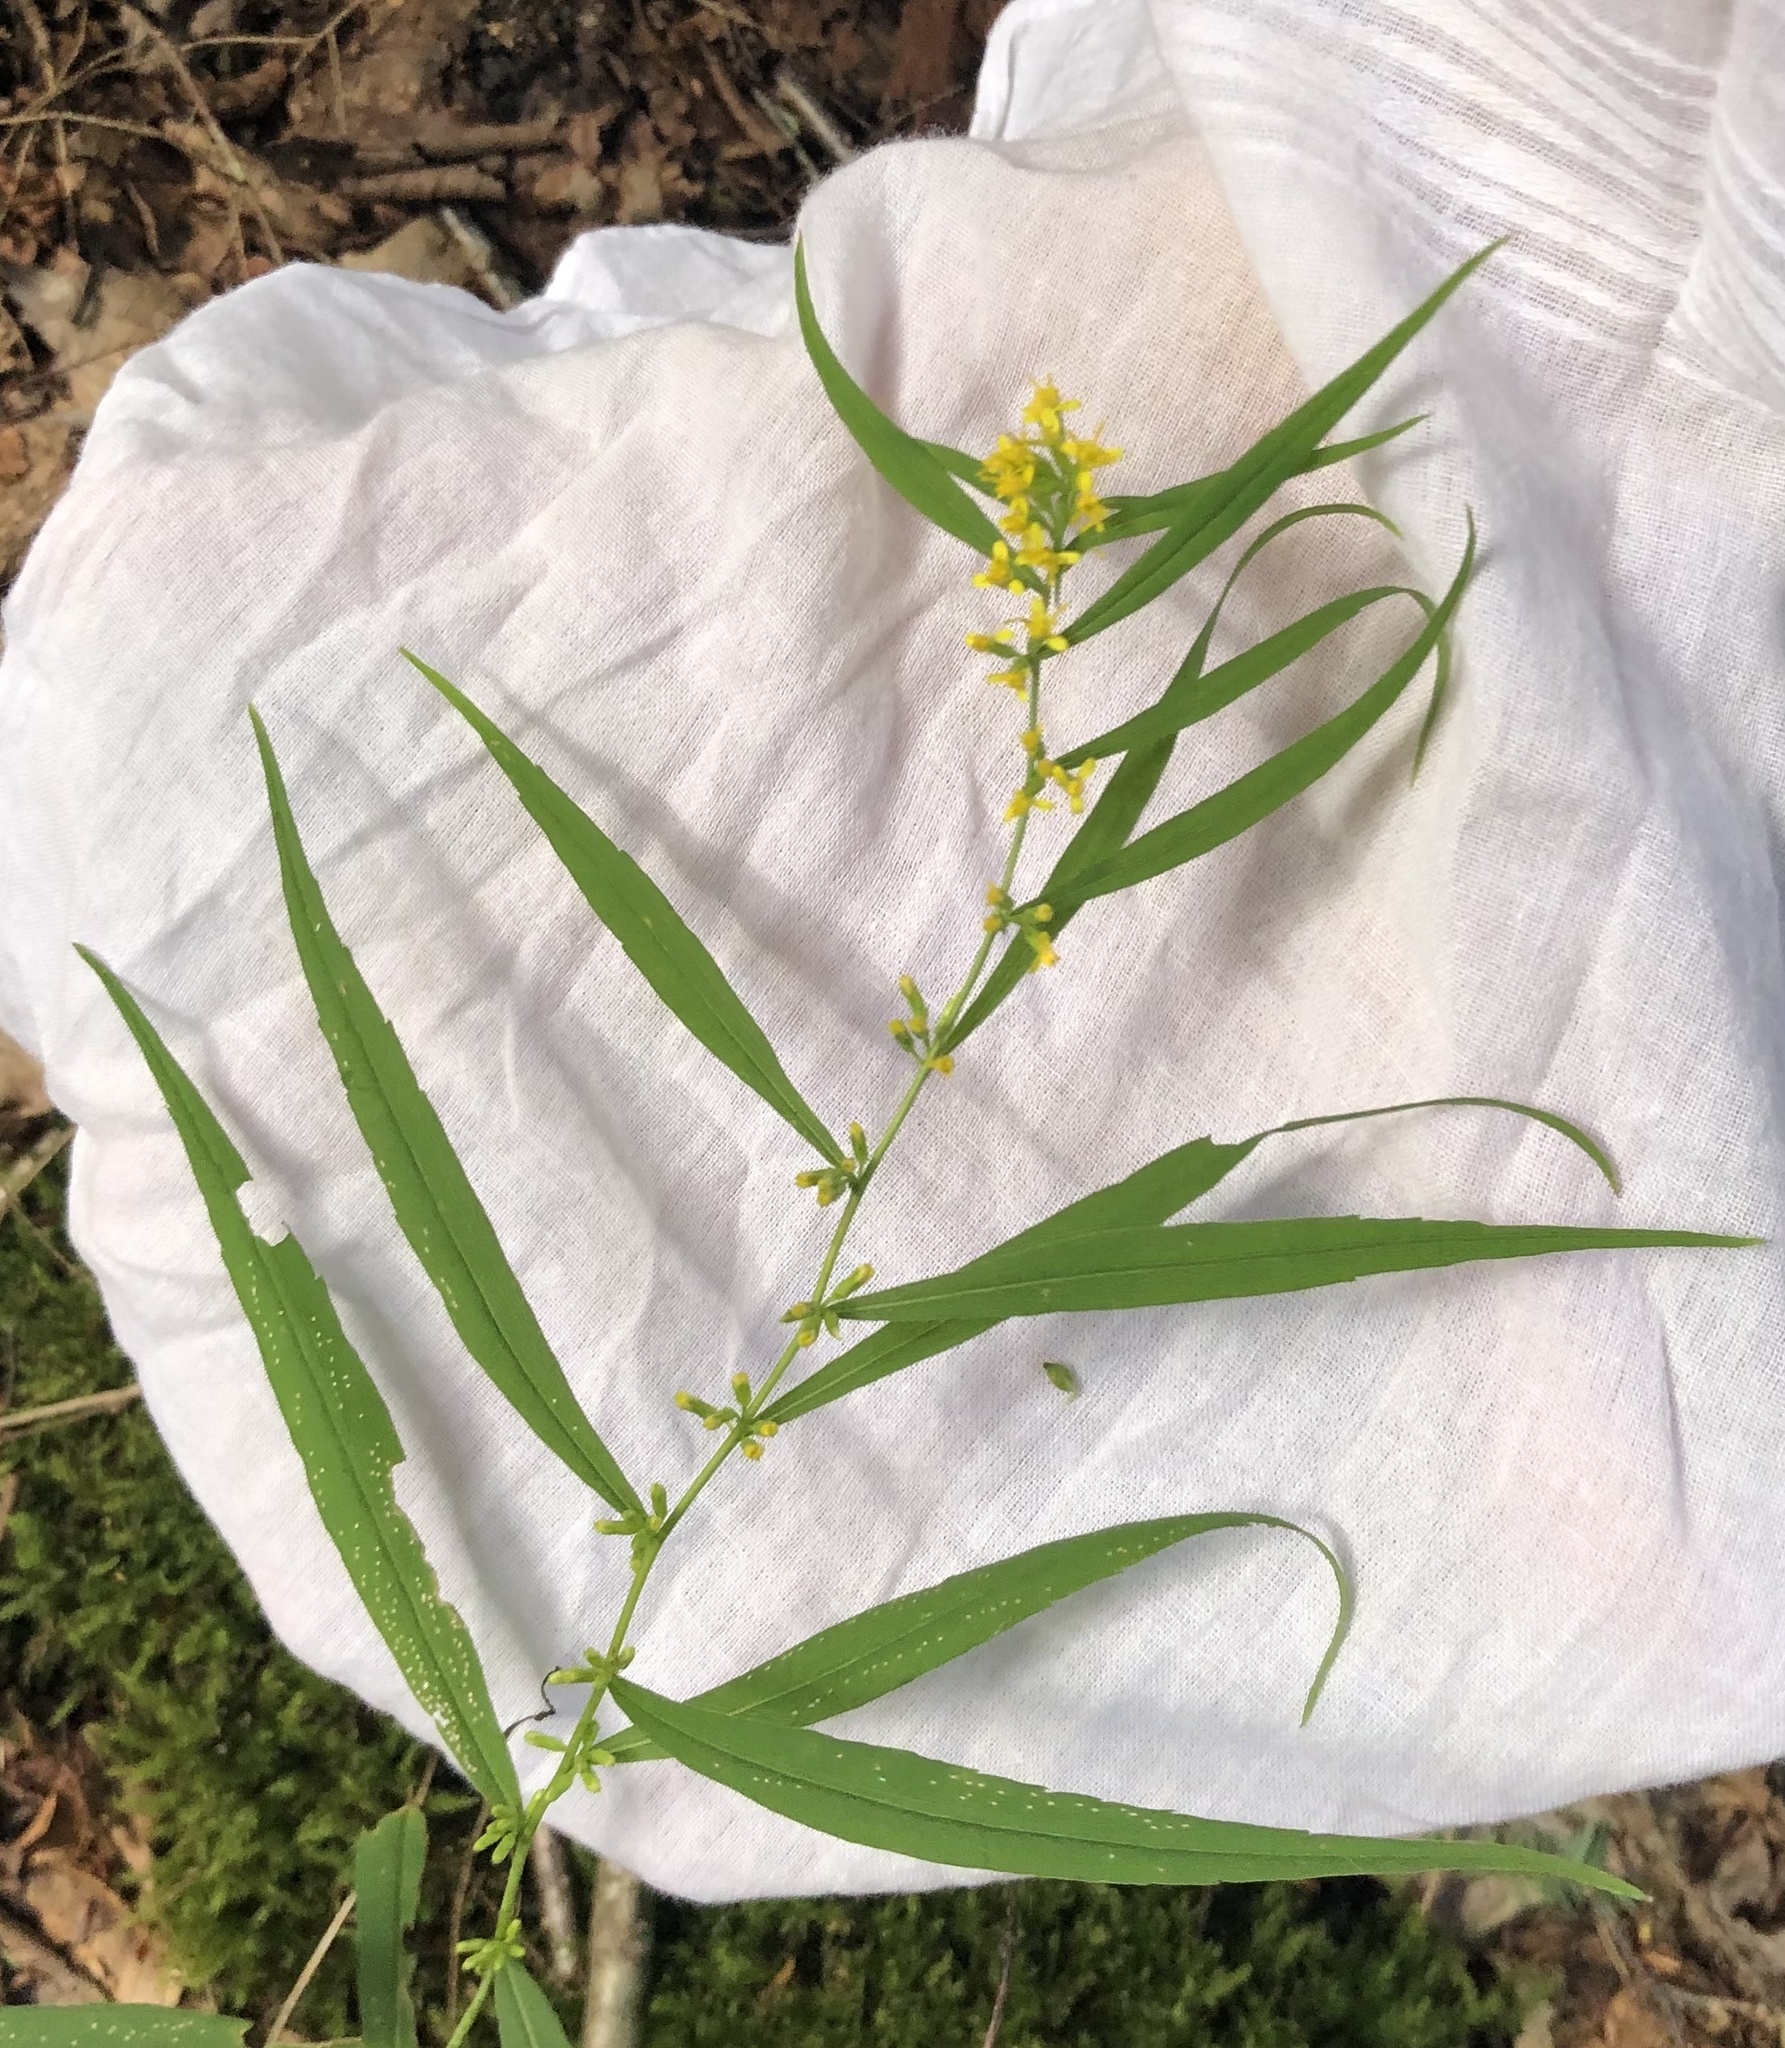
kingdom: Plantae
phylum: Tracheophyta
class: Magnoliopsida
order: Asterales
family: Asteraceae
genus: Solidago
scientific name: Solidago caesia
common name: Woodland goldenrod
